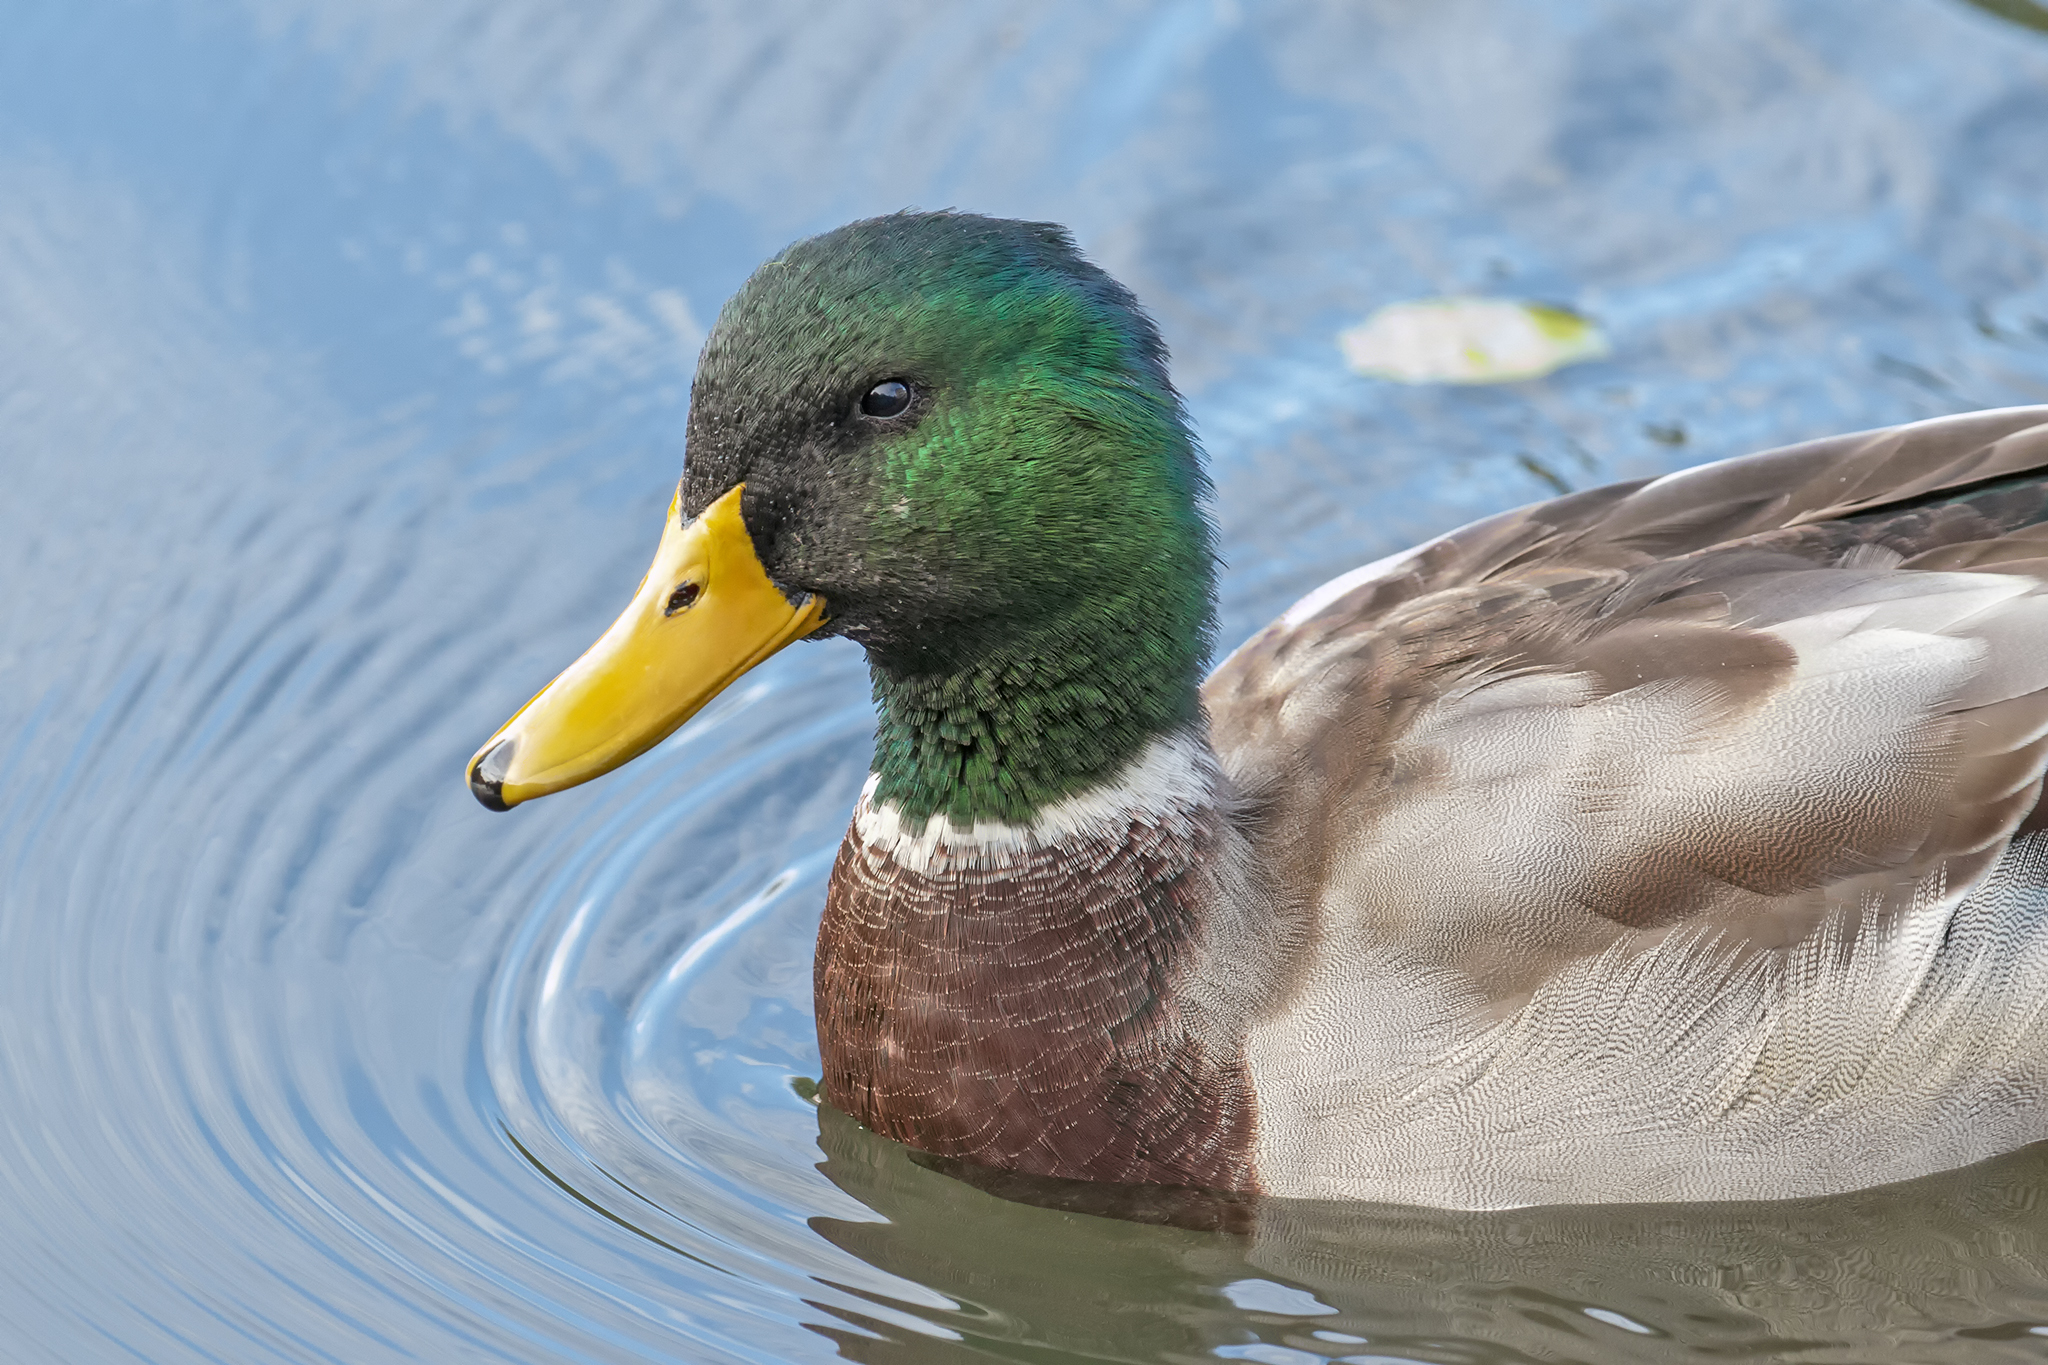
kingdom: Animalia
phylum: Chordata
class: Aves
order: Anseriformes
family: Anatidae
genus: Anas
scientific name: Anas platyrhynchos
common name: Mallard
